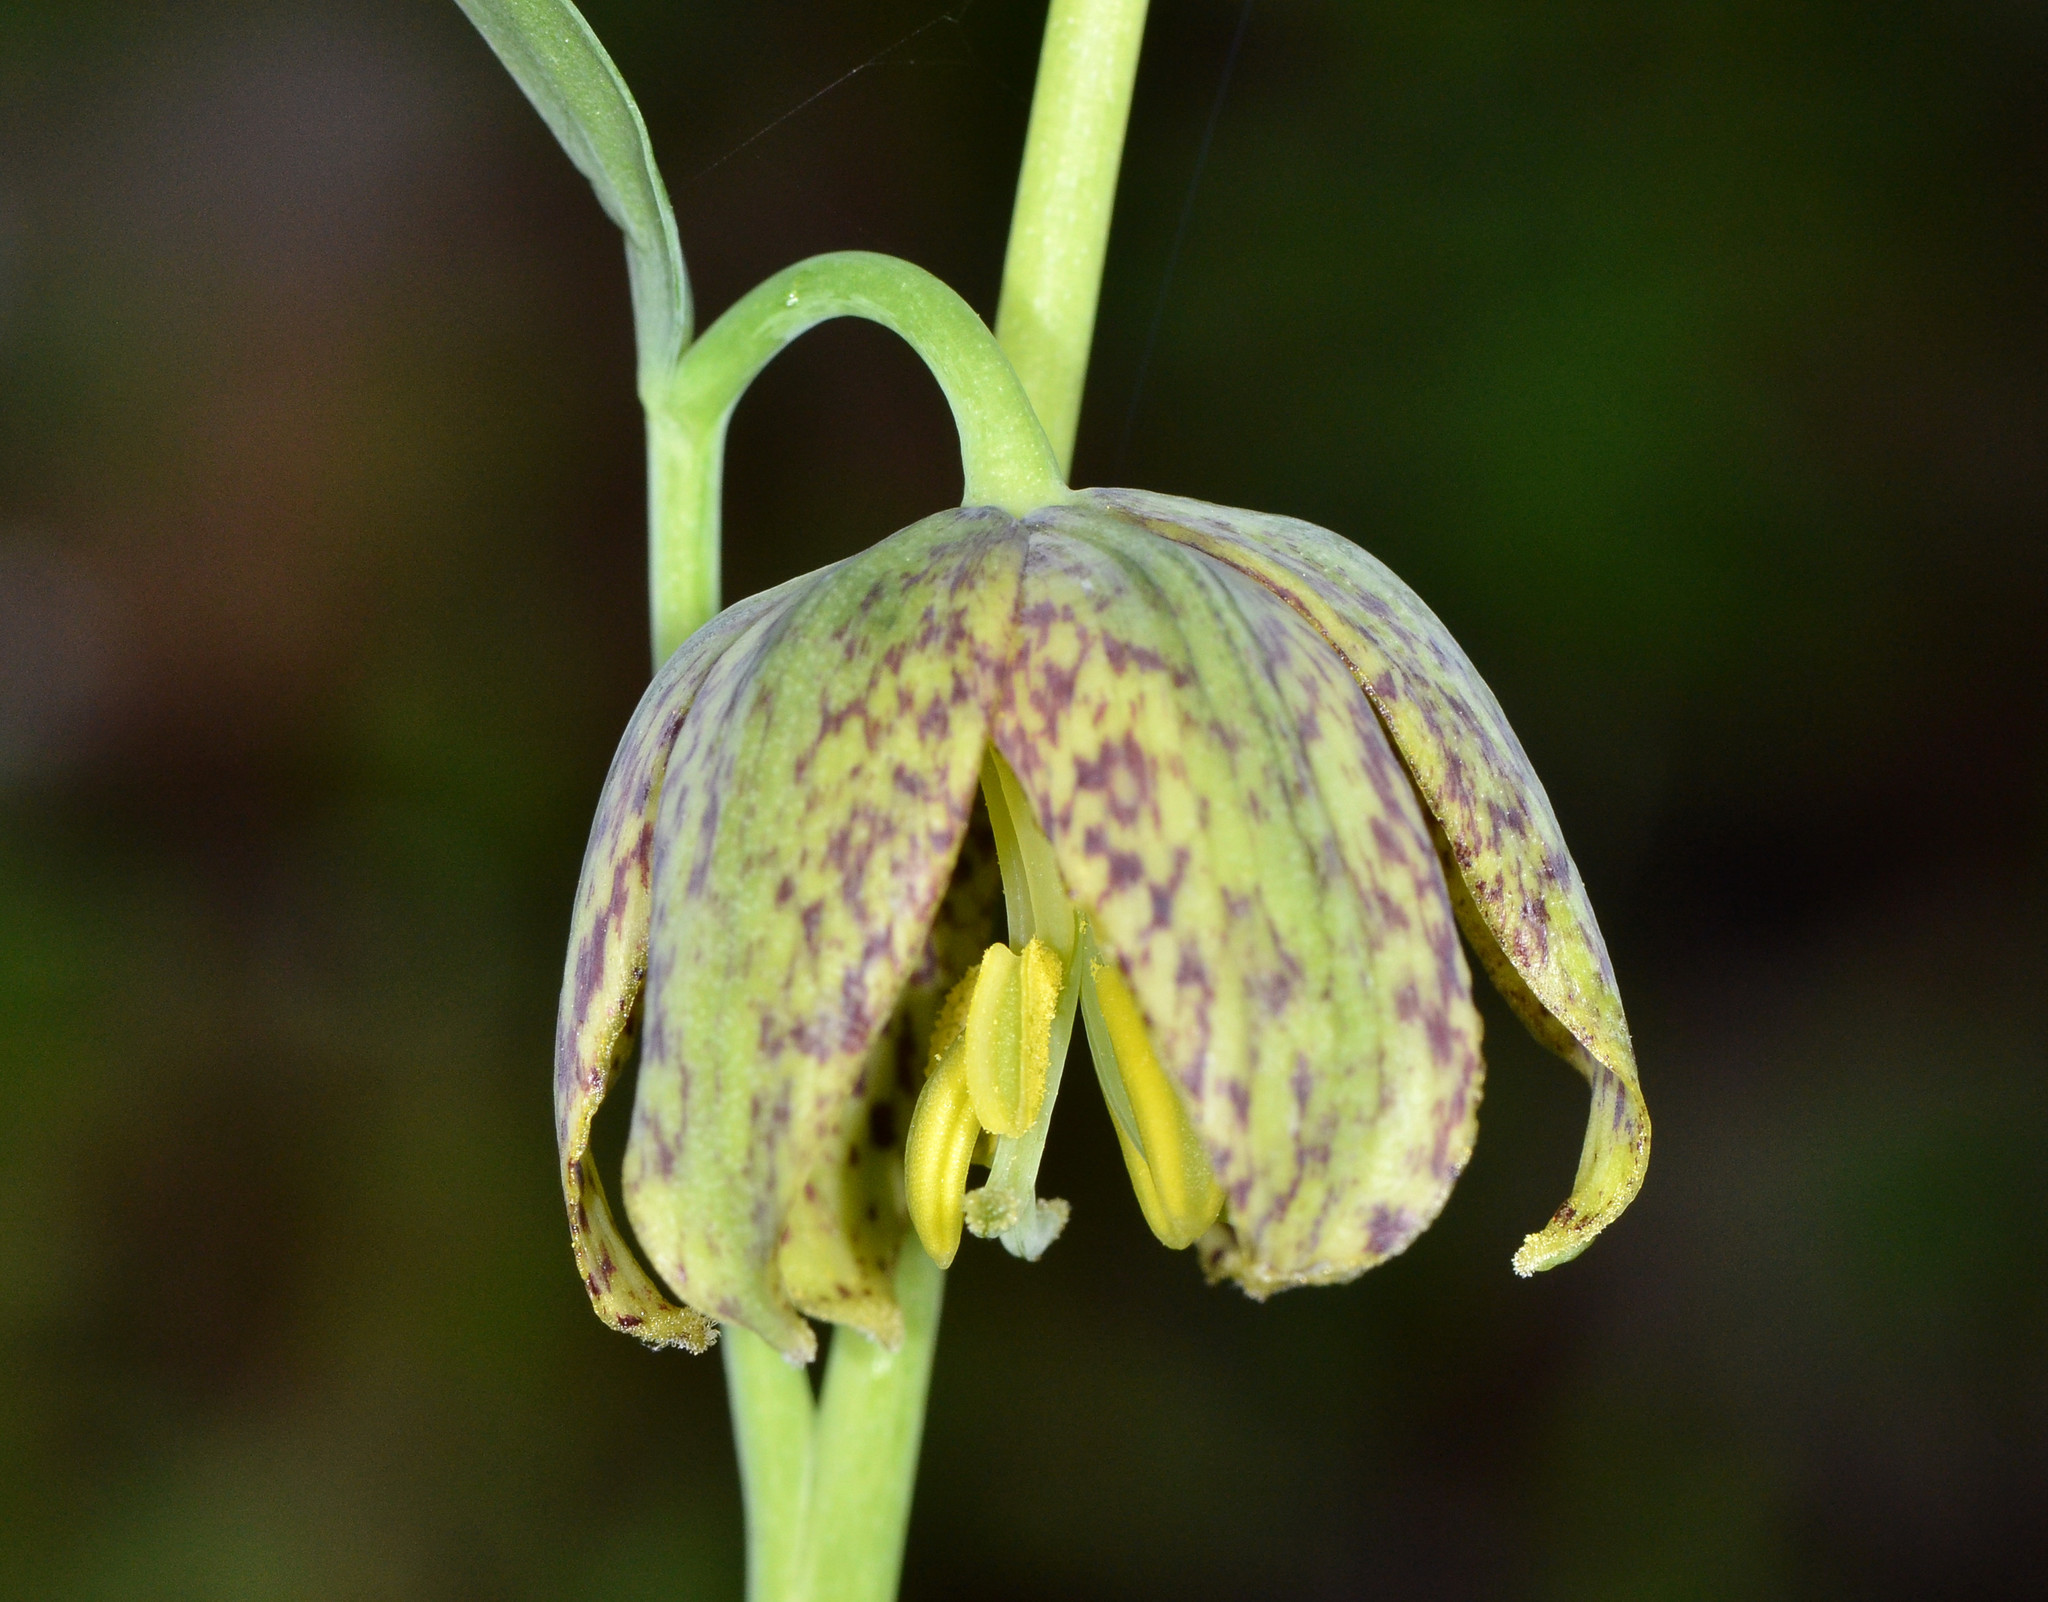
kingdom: Plantae
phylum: Tracheophyta
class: Liliopsida
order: Liliales
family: Liliaceae
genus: Fritillaria
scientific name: Fritillaria affinis
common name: Ojai fritillary
